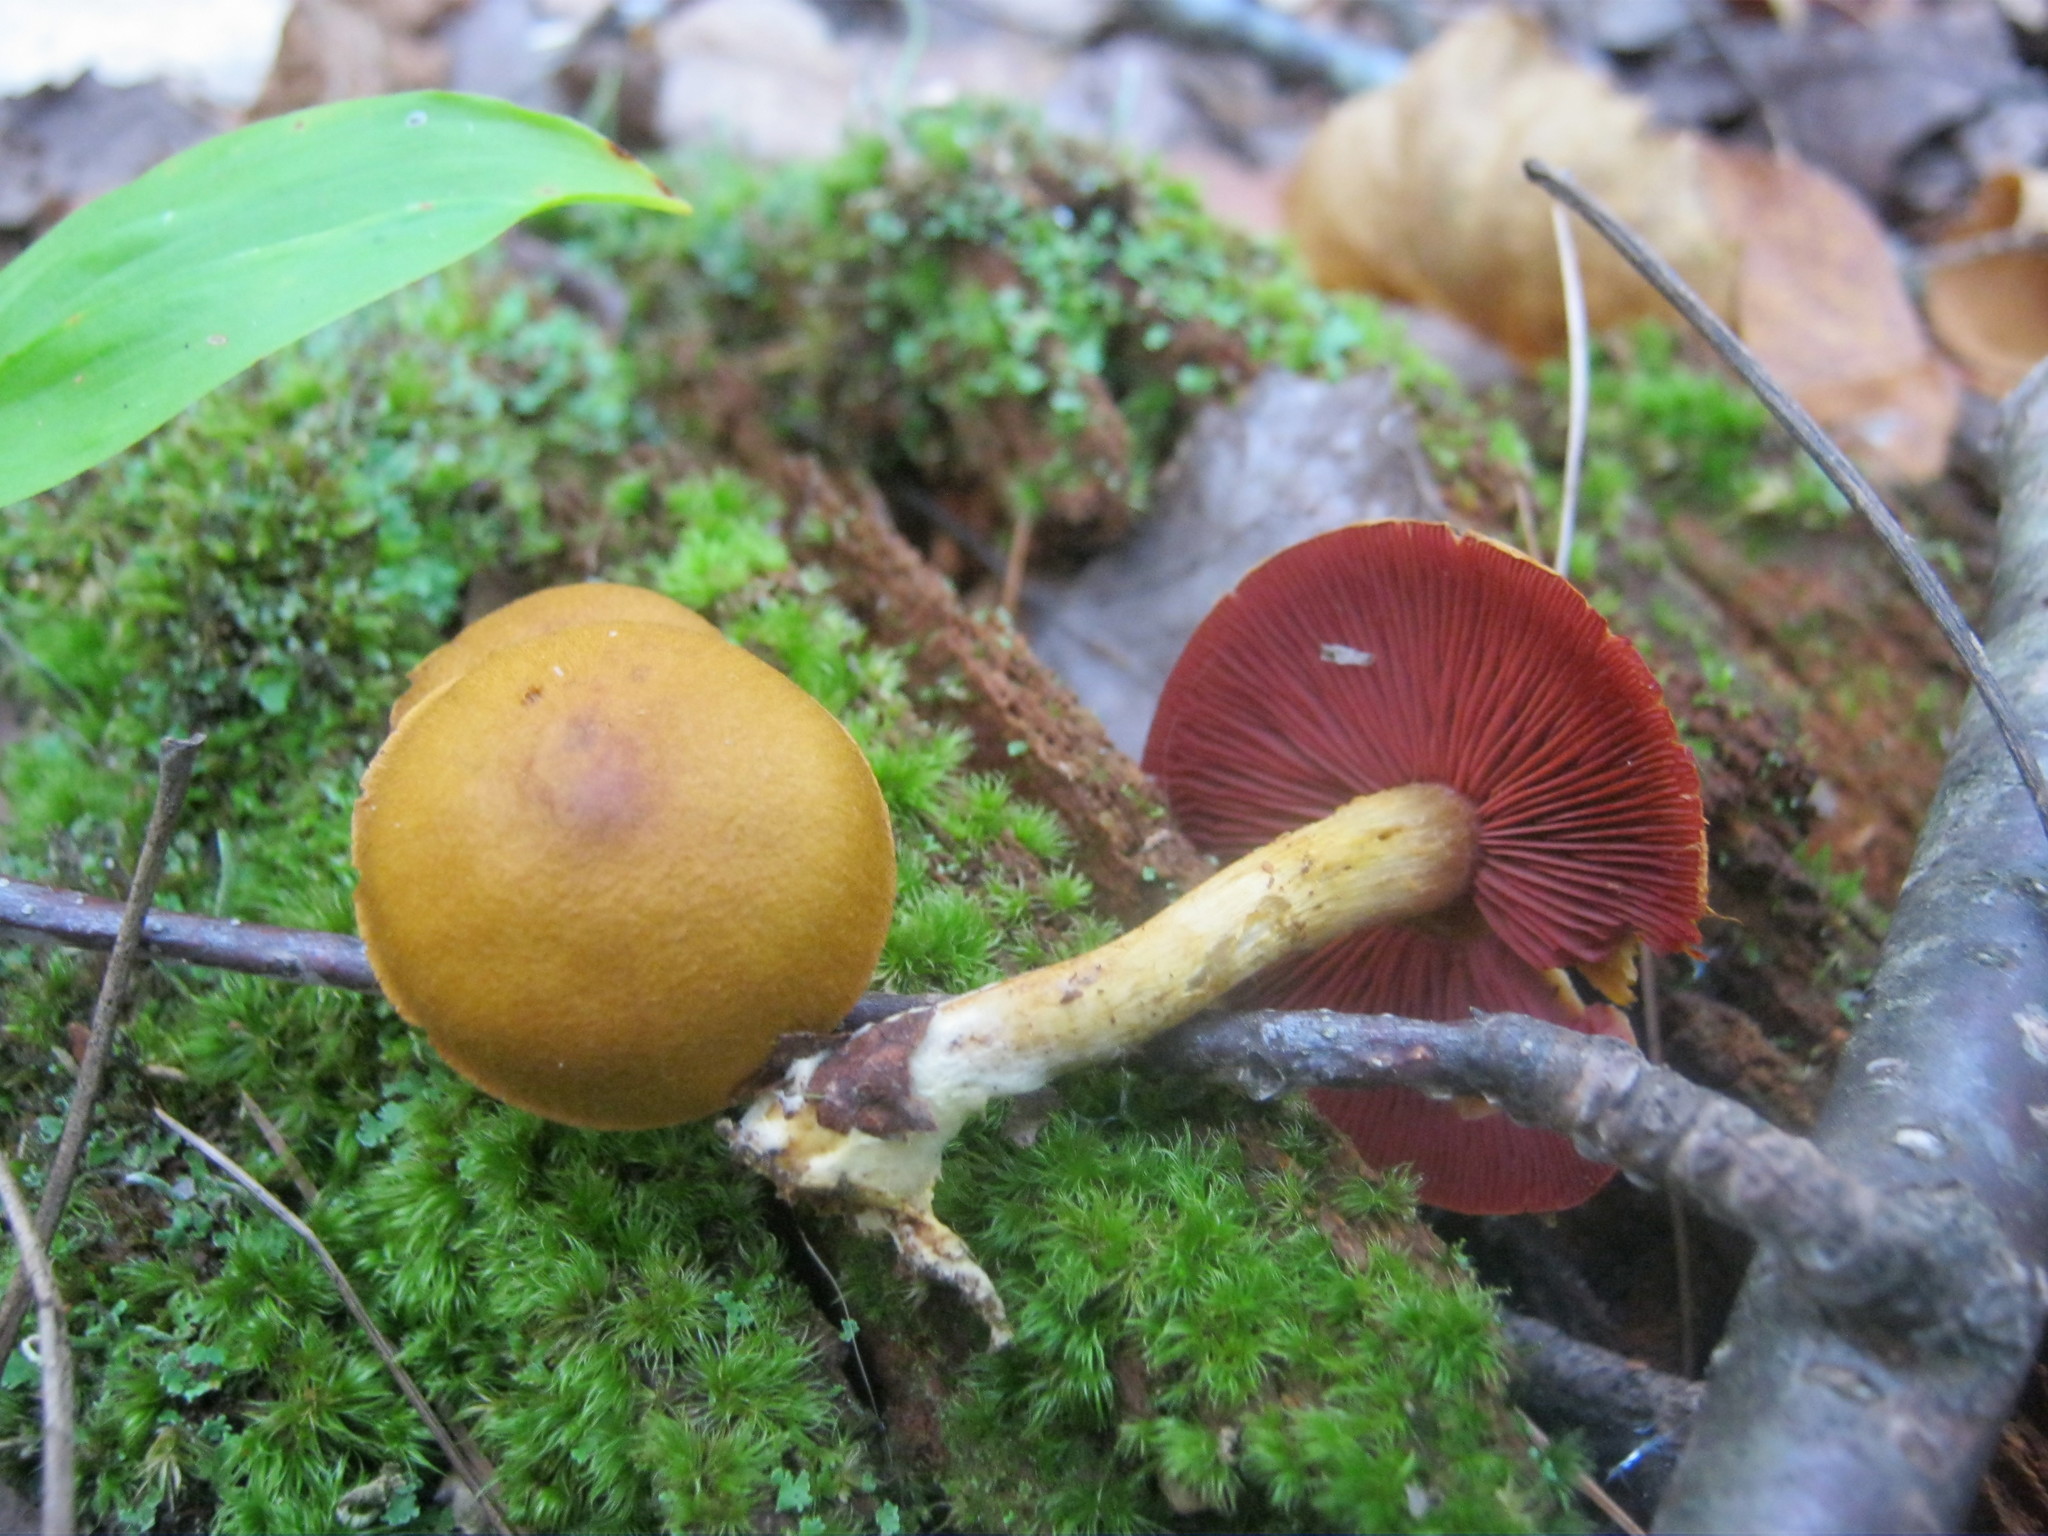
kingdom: Fungi
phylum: Basidiomycota
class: Agaricomycetes
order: Agaricales
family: Cortinariaceae
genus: Cortinarius
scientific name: Cortinarius semisanguineus
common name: Surprise webcap
